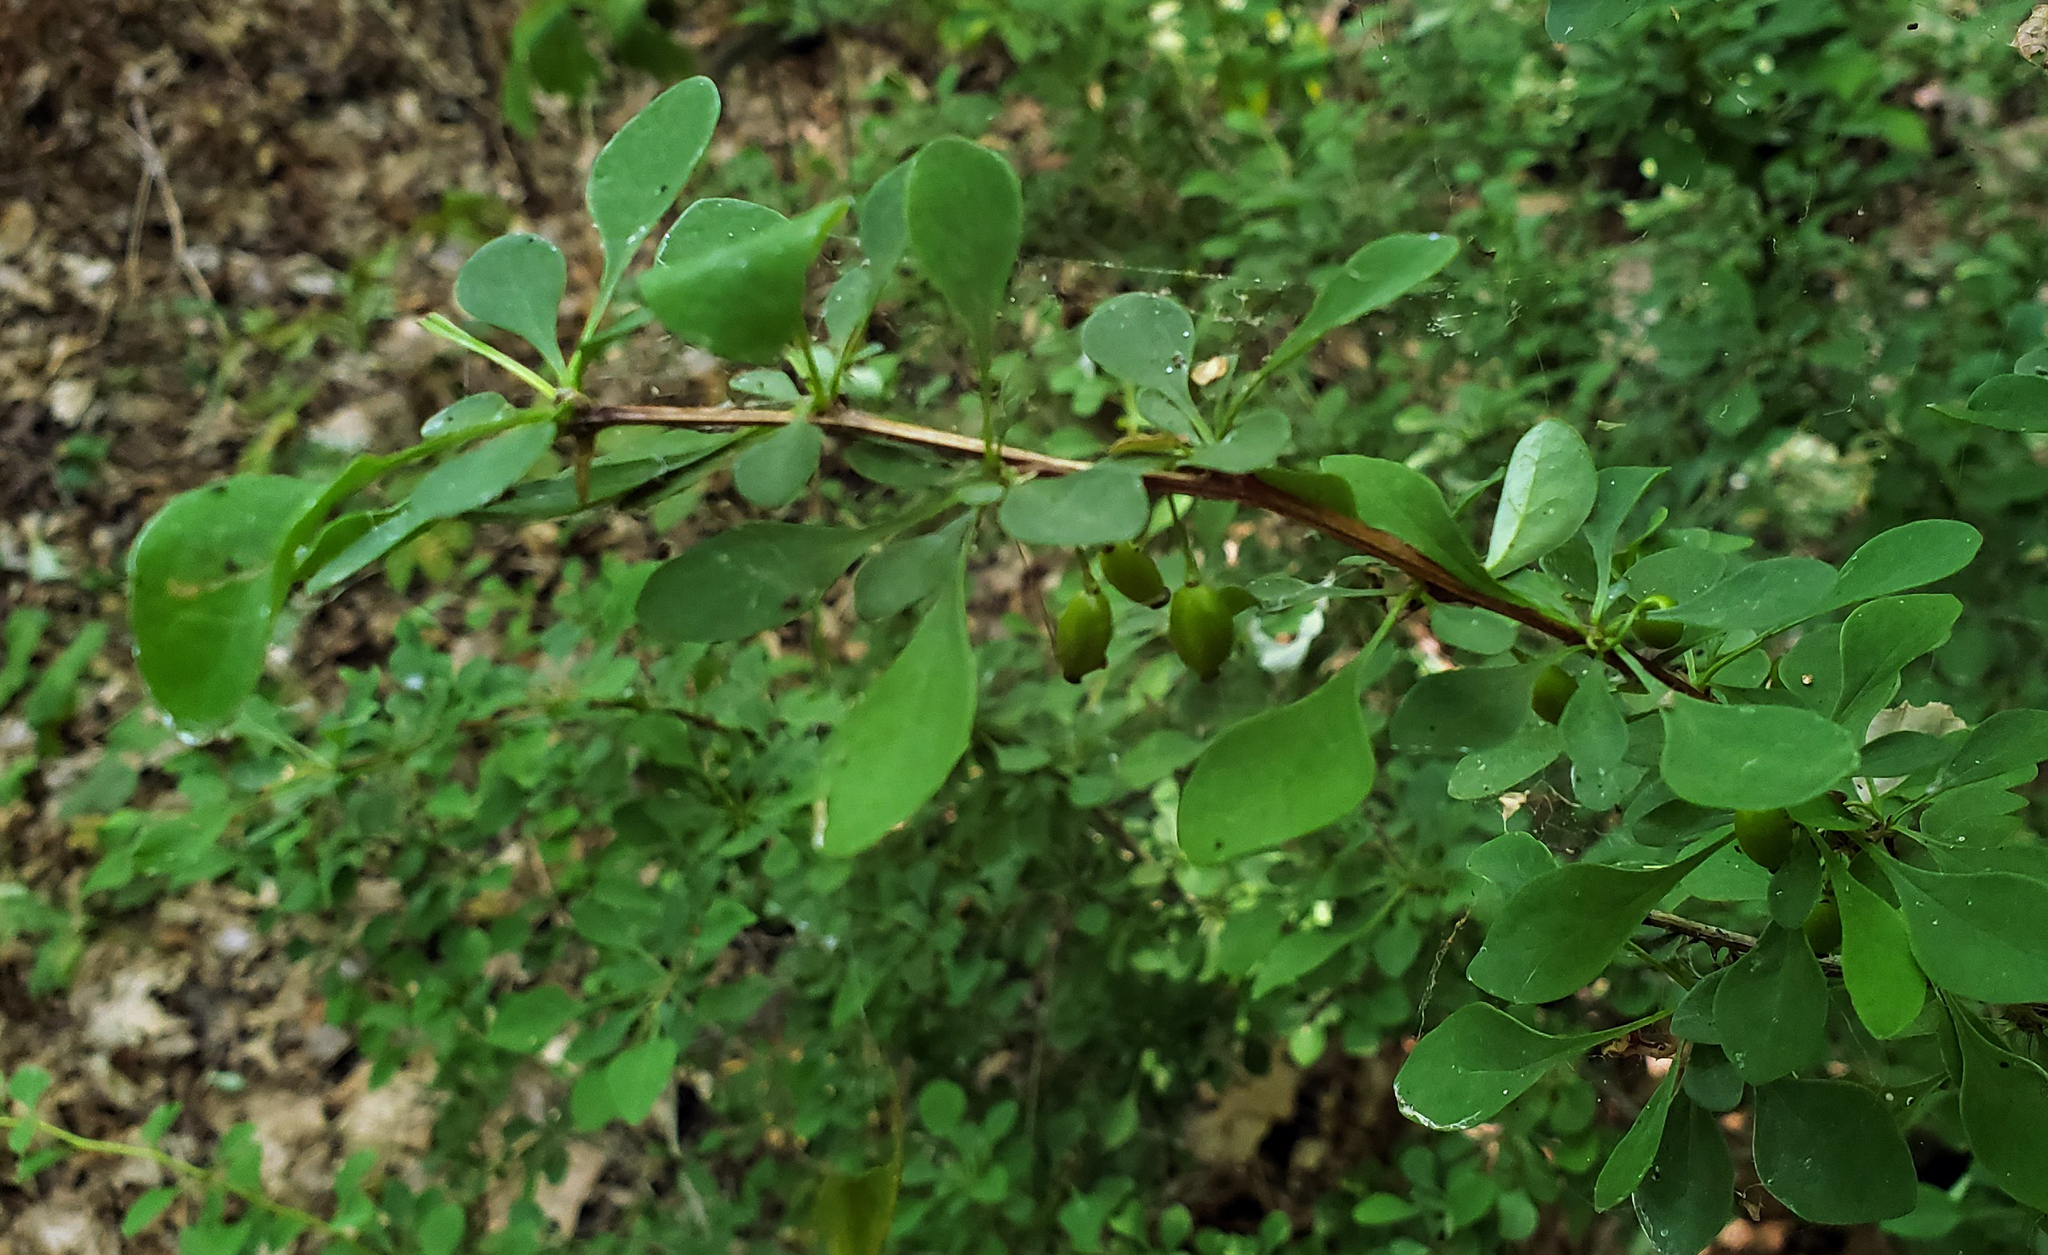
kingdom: Plantae
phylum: Tracheophyta
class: Magnoliopsida
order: Ranunculales
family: Berberidaceae
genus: Berberis
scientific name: Berberis thunbergii
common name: Japanese barberry
